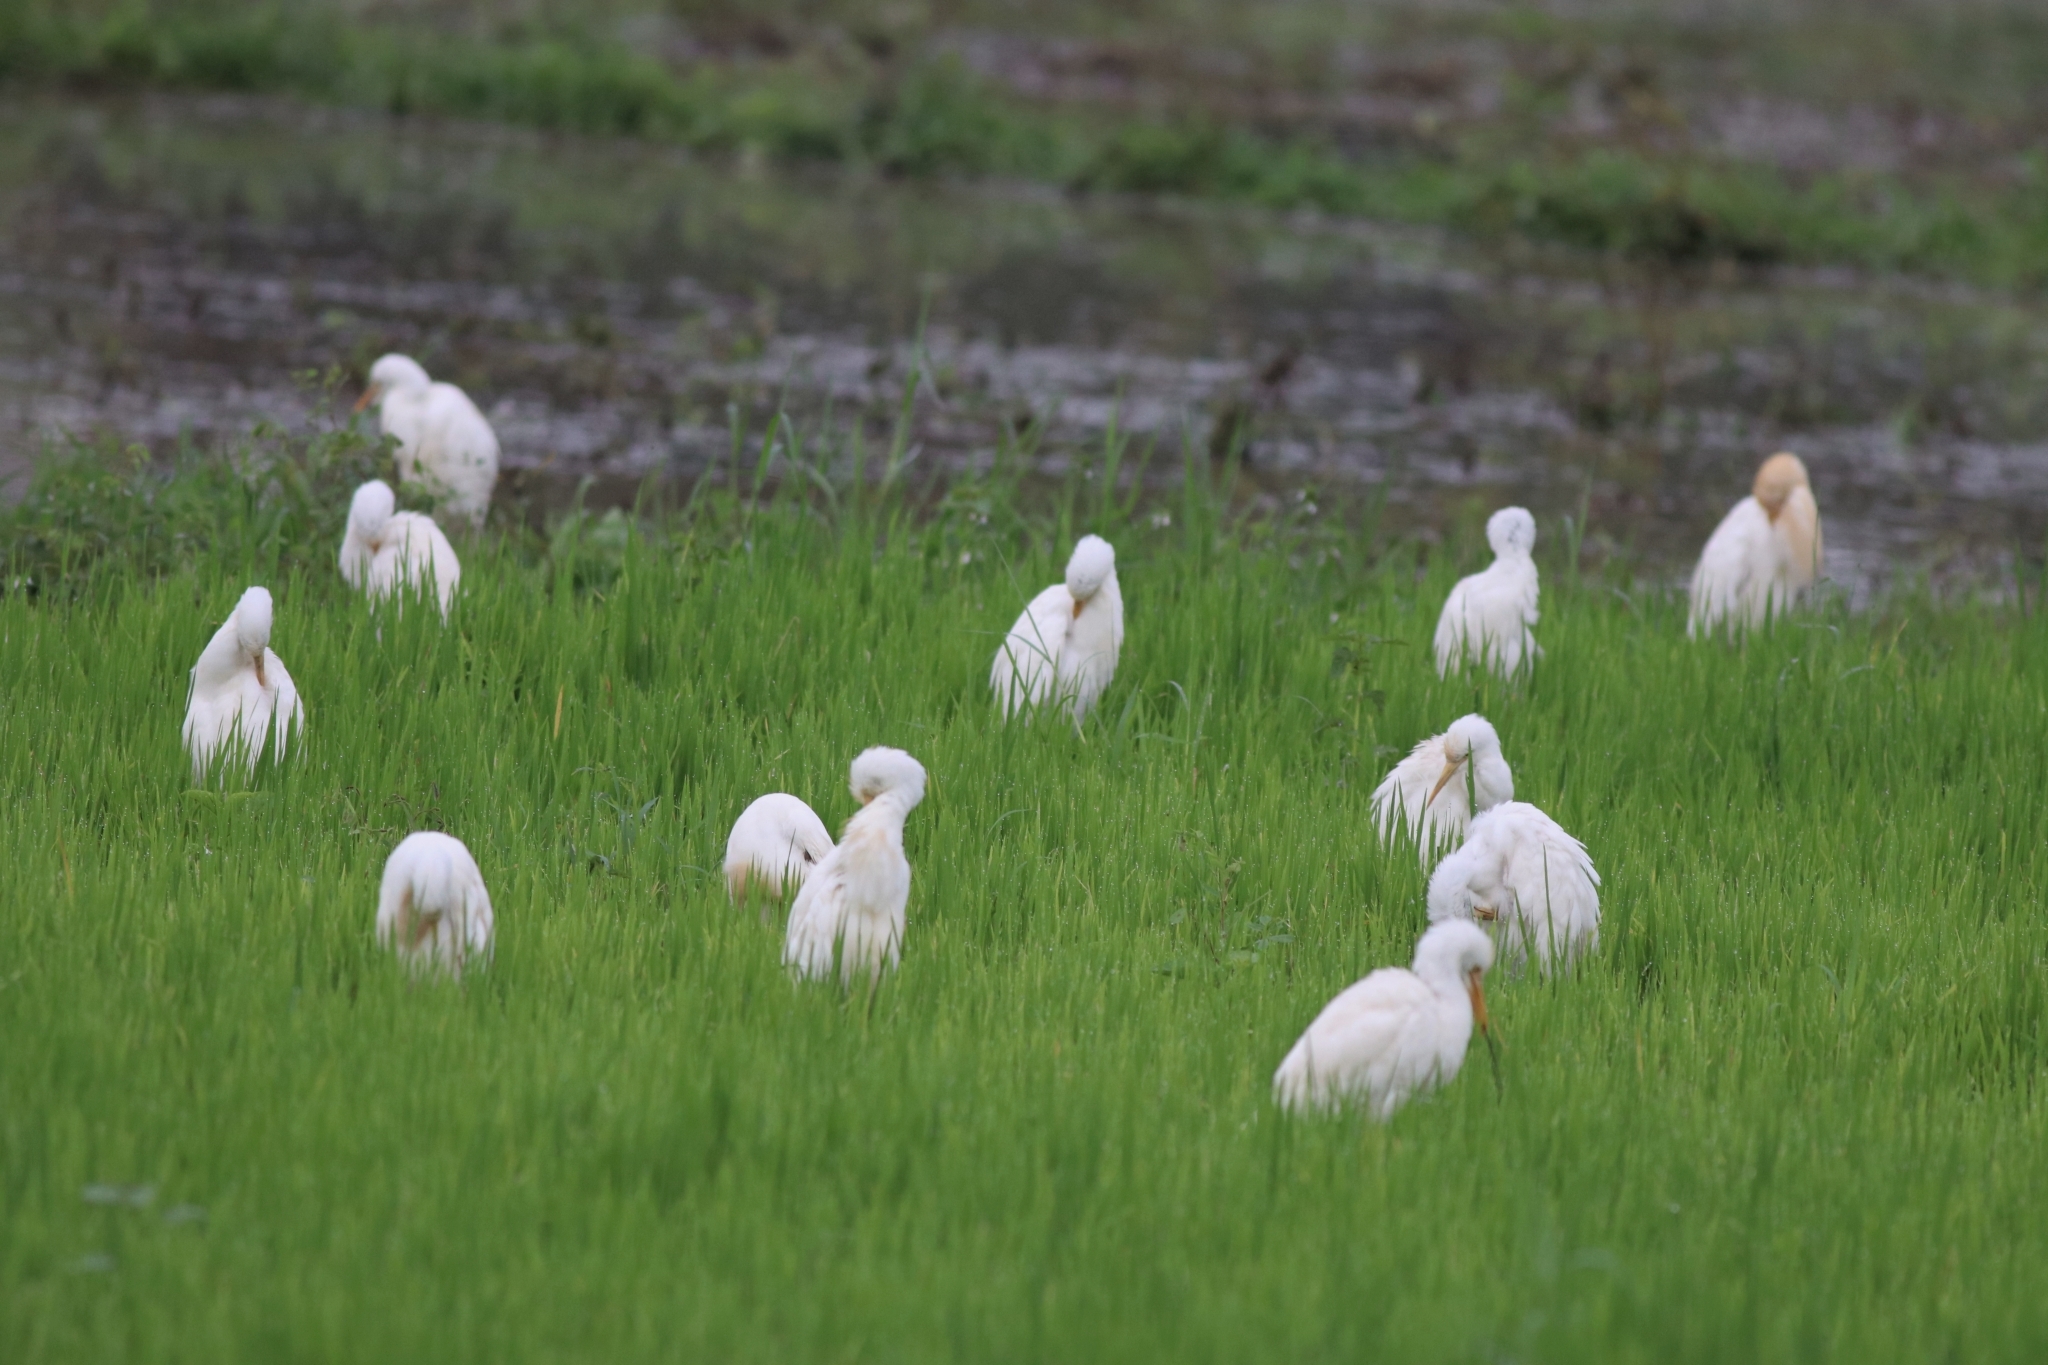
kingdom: Animalia
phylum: Chordata
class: Aves
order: Pelecaniformes
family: Ardeidae
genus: Bubulcus
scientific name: Bubulcus coromandus
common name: Eastern cattle egret
